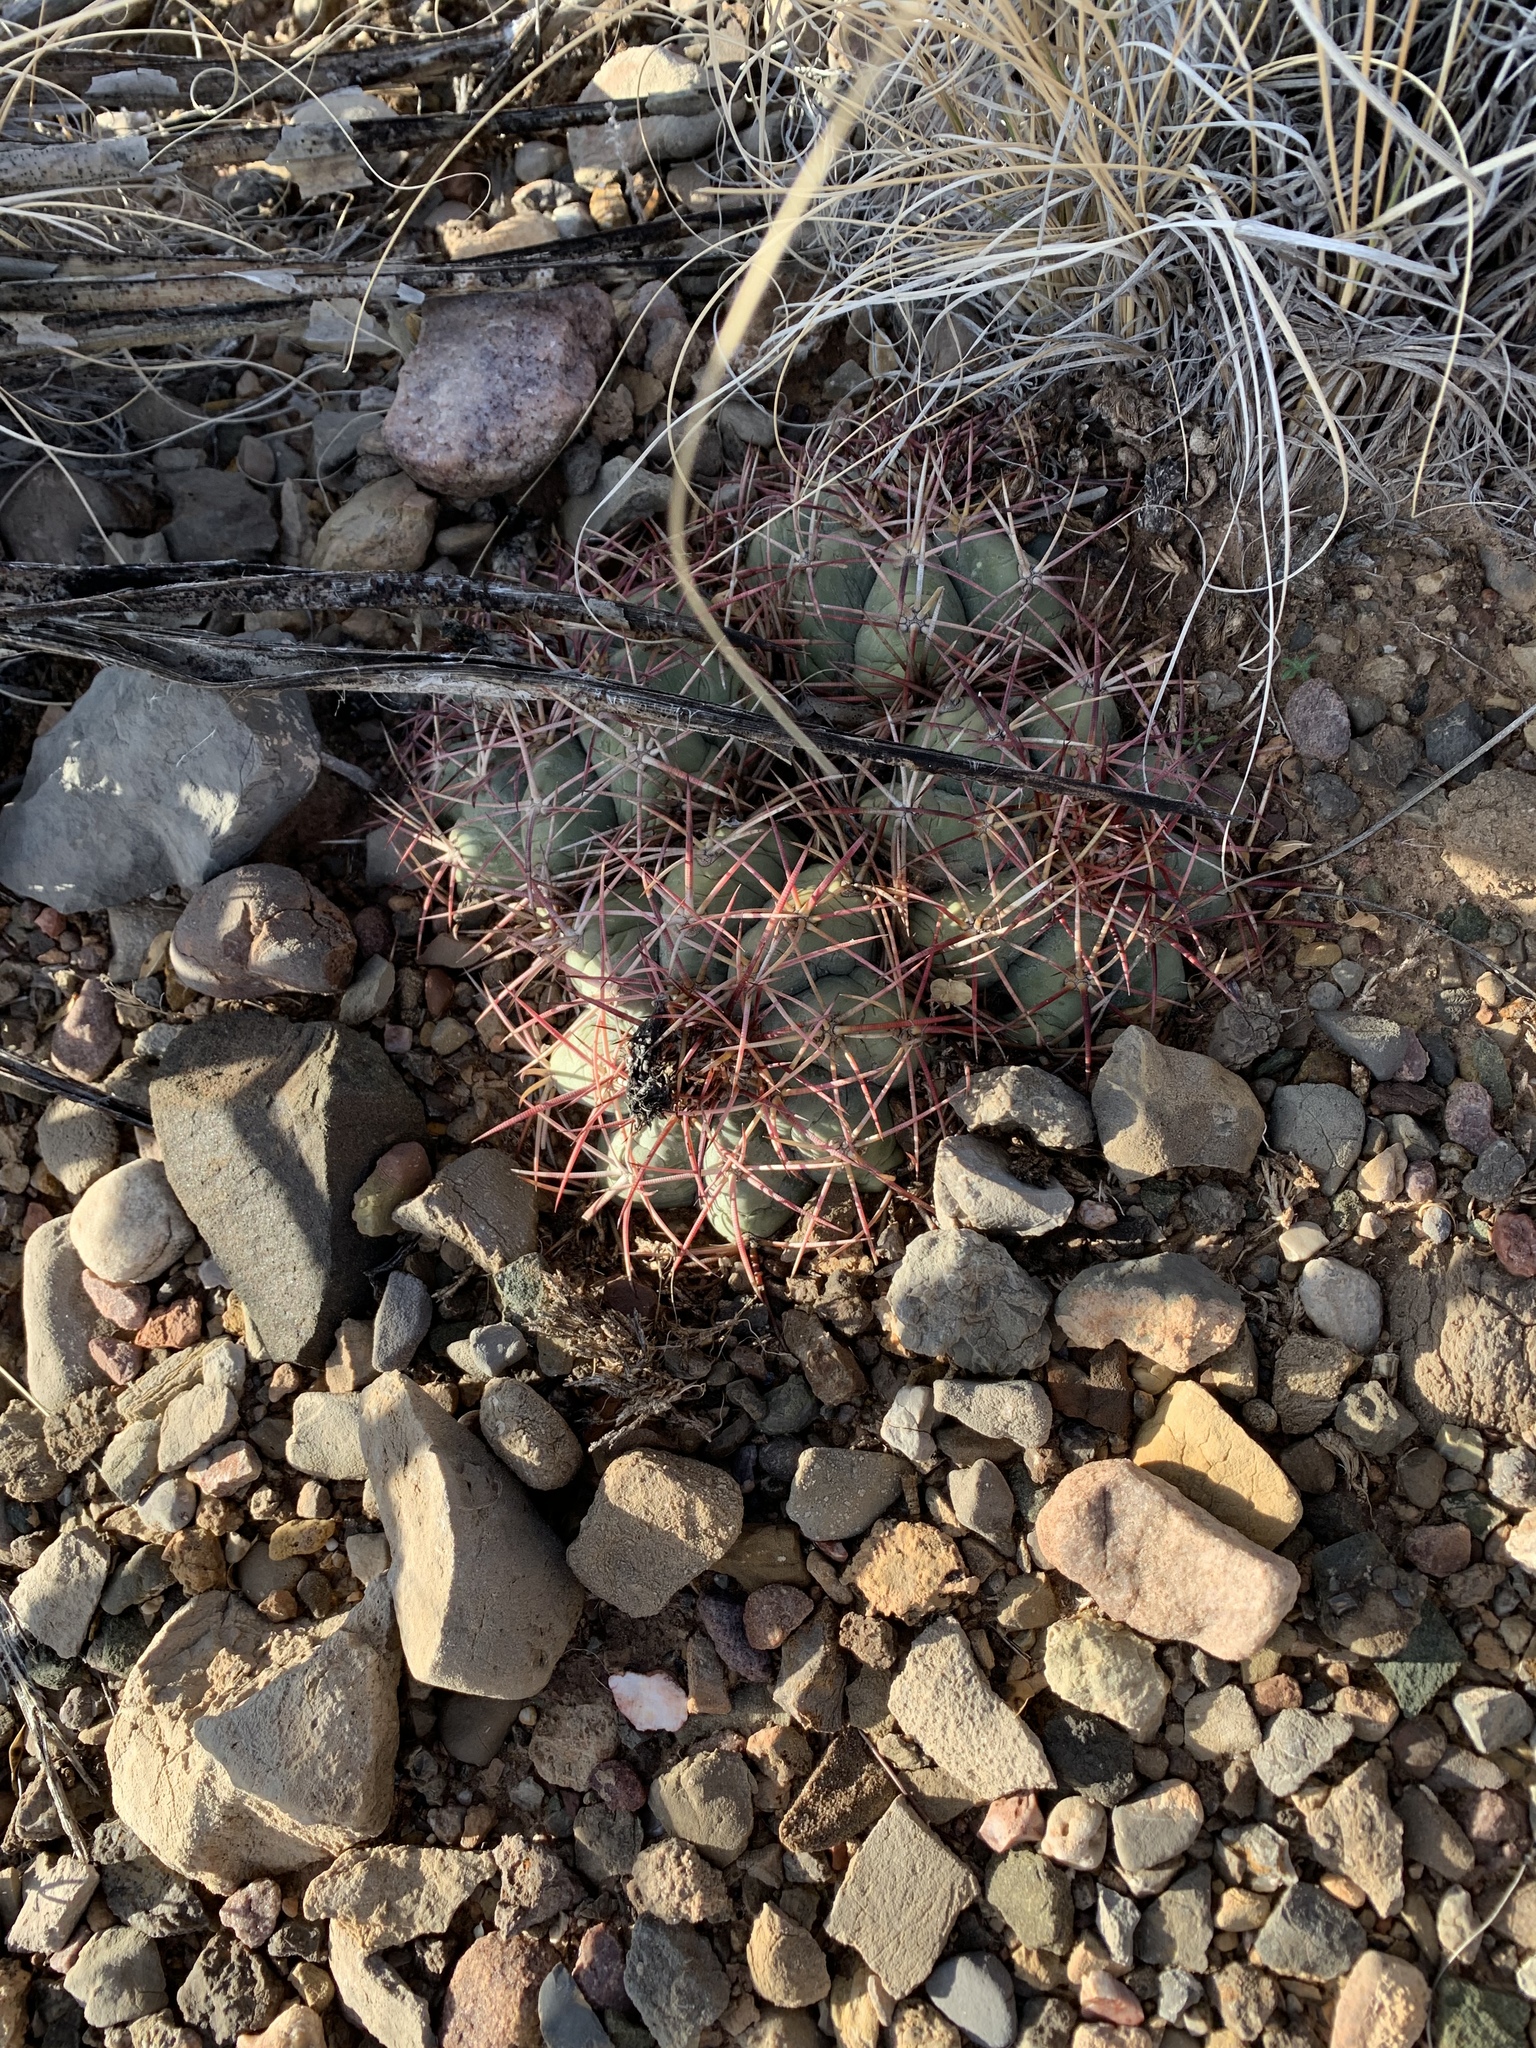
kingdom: Plantae
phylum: Tracheophyta
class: Magnoliopsida
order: Caryophyllales
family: Cactaceae
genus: Echinocactus
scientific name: Echinocactus horizonthalonius
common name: Devilshead
